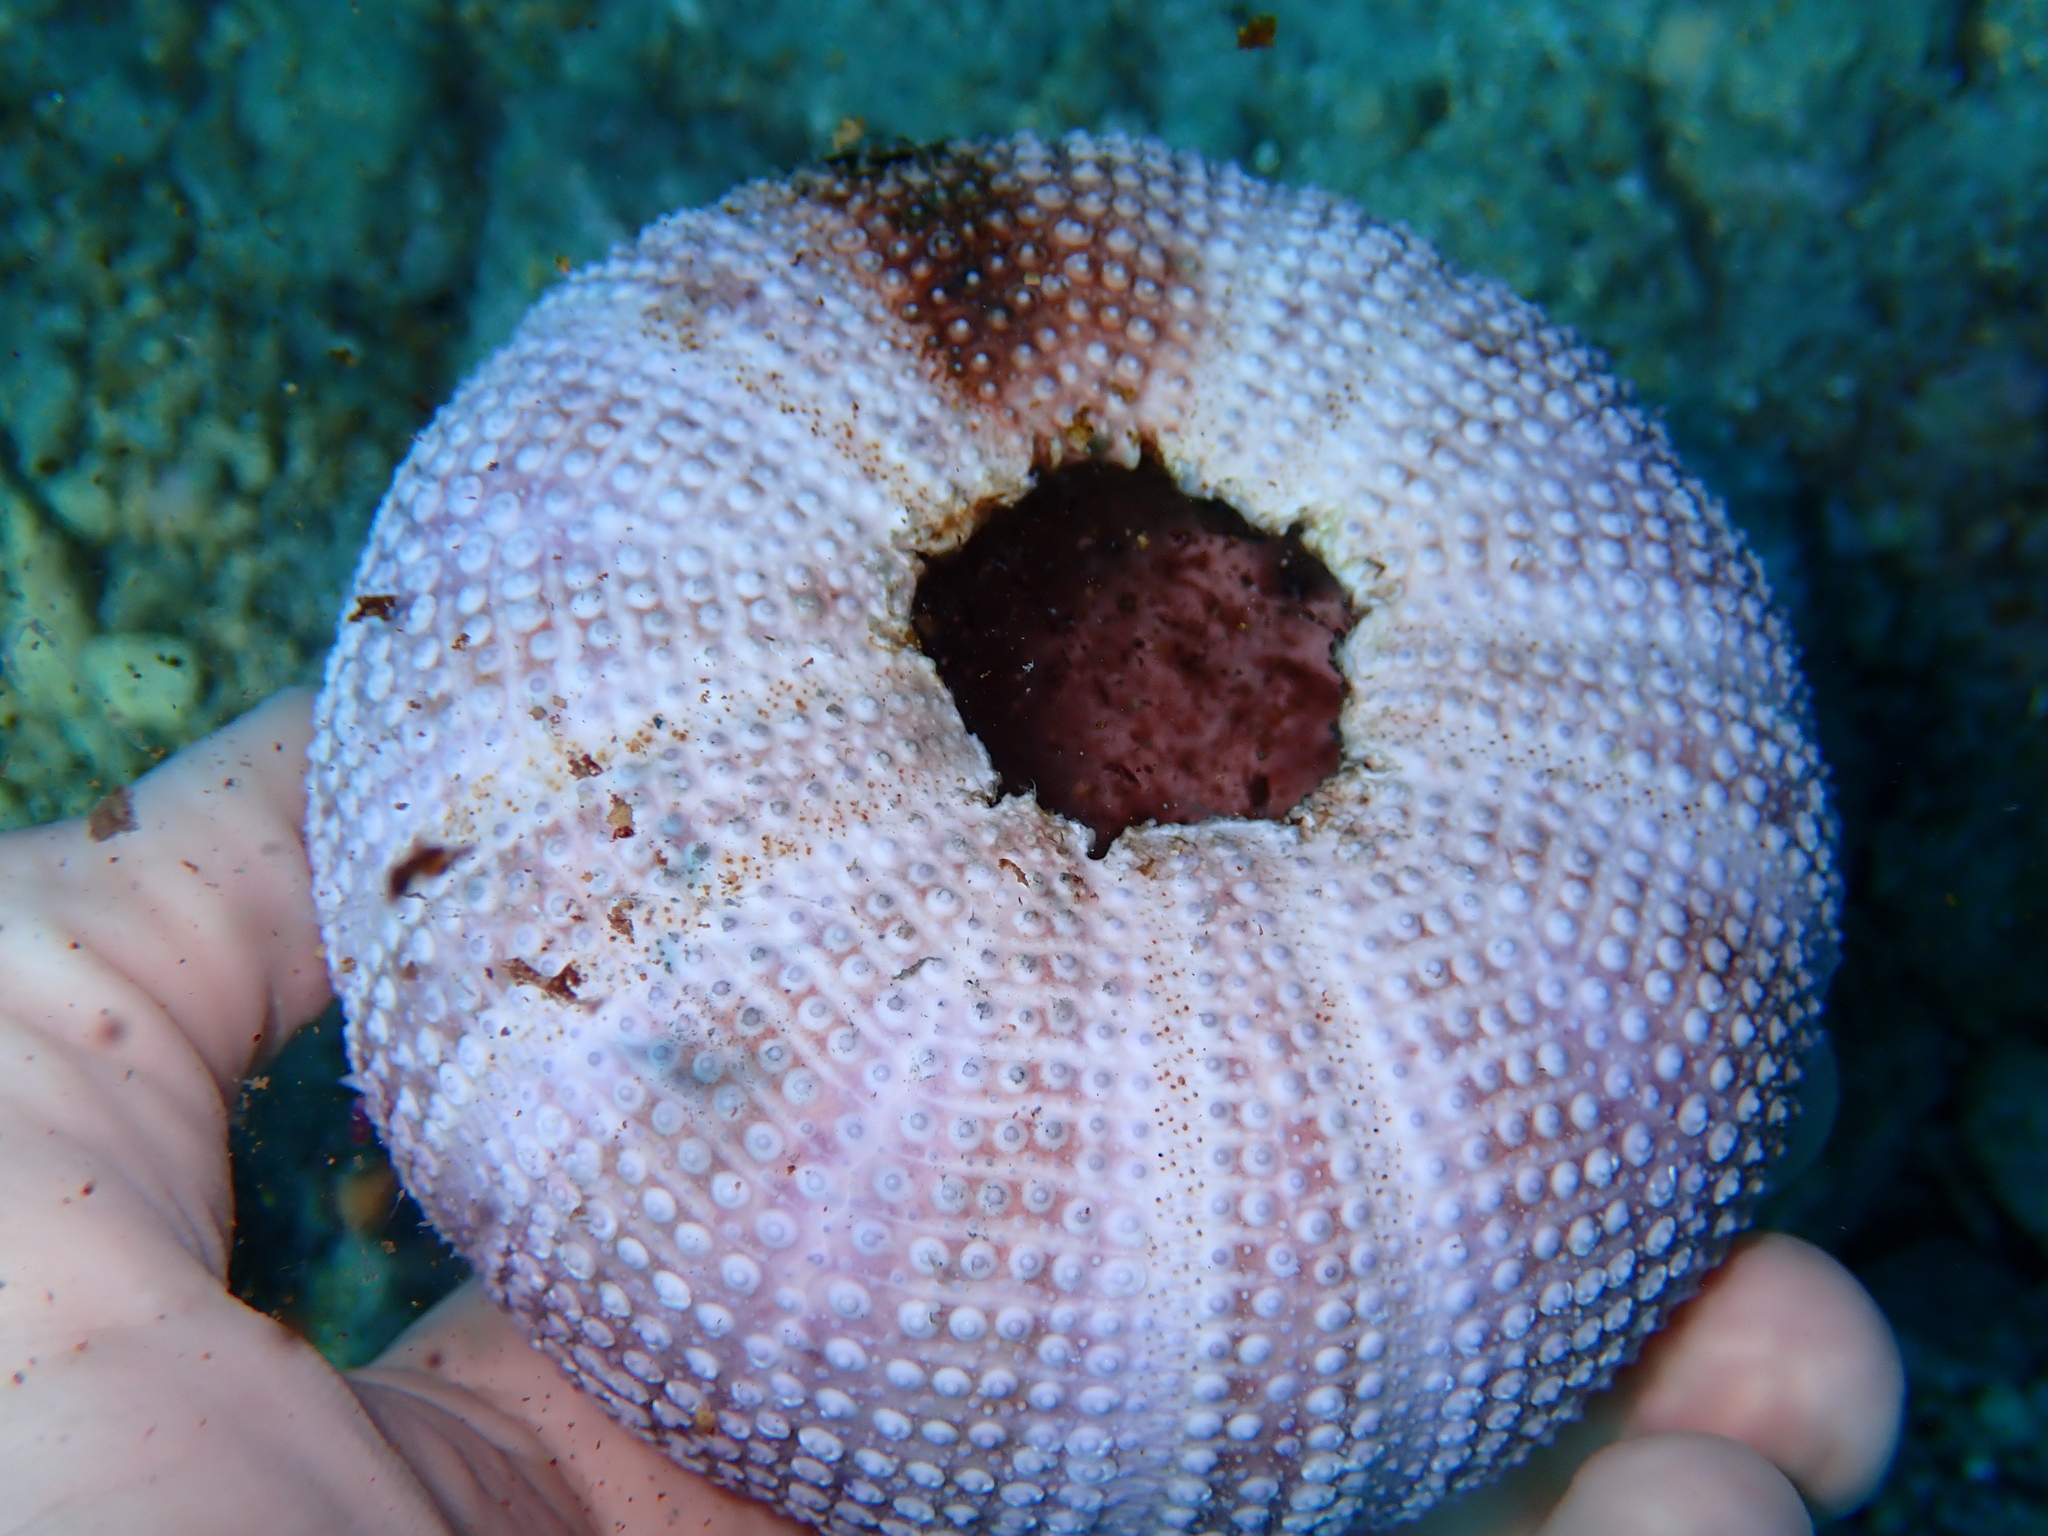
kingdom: Animalia
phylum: Echinodermata
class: Echinoidea
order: Camarodonta
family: Toxopneustidae
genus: Sphaerechinus
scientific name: Sphaerechinus granularis
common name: Violet sea urchin
